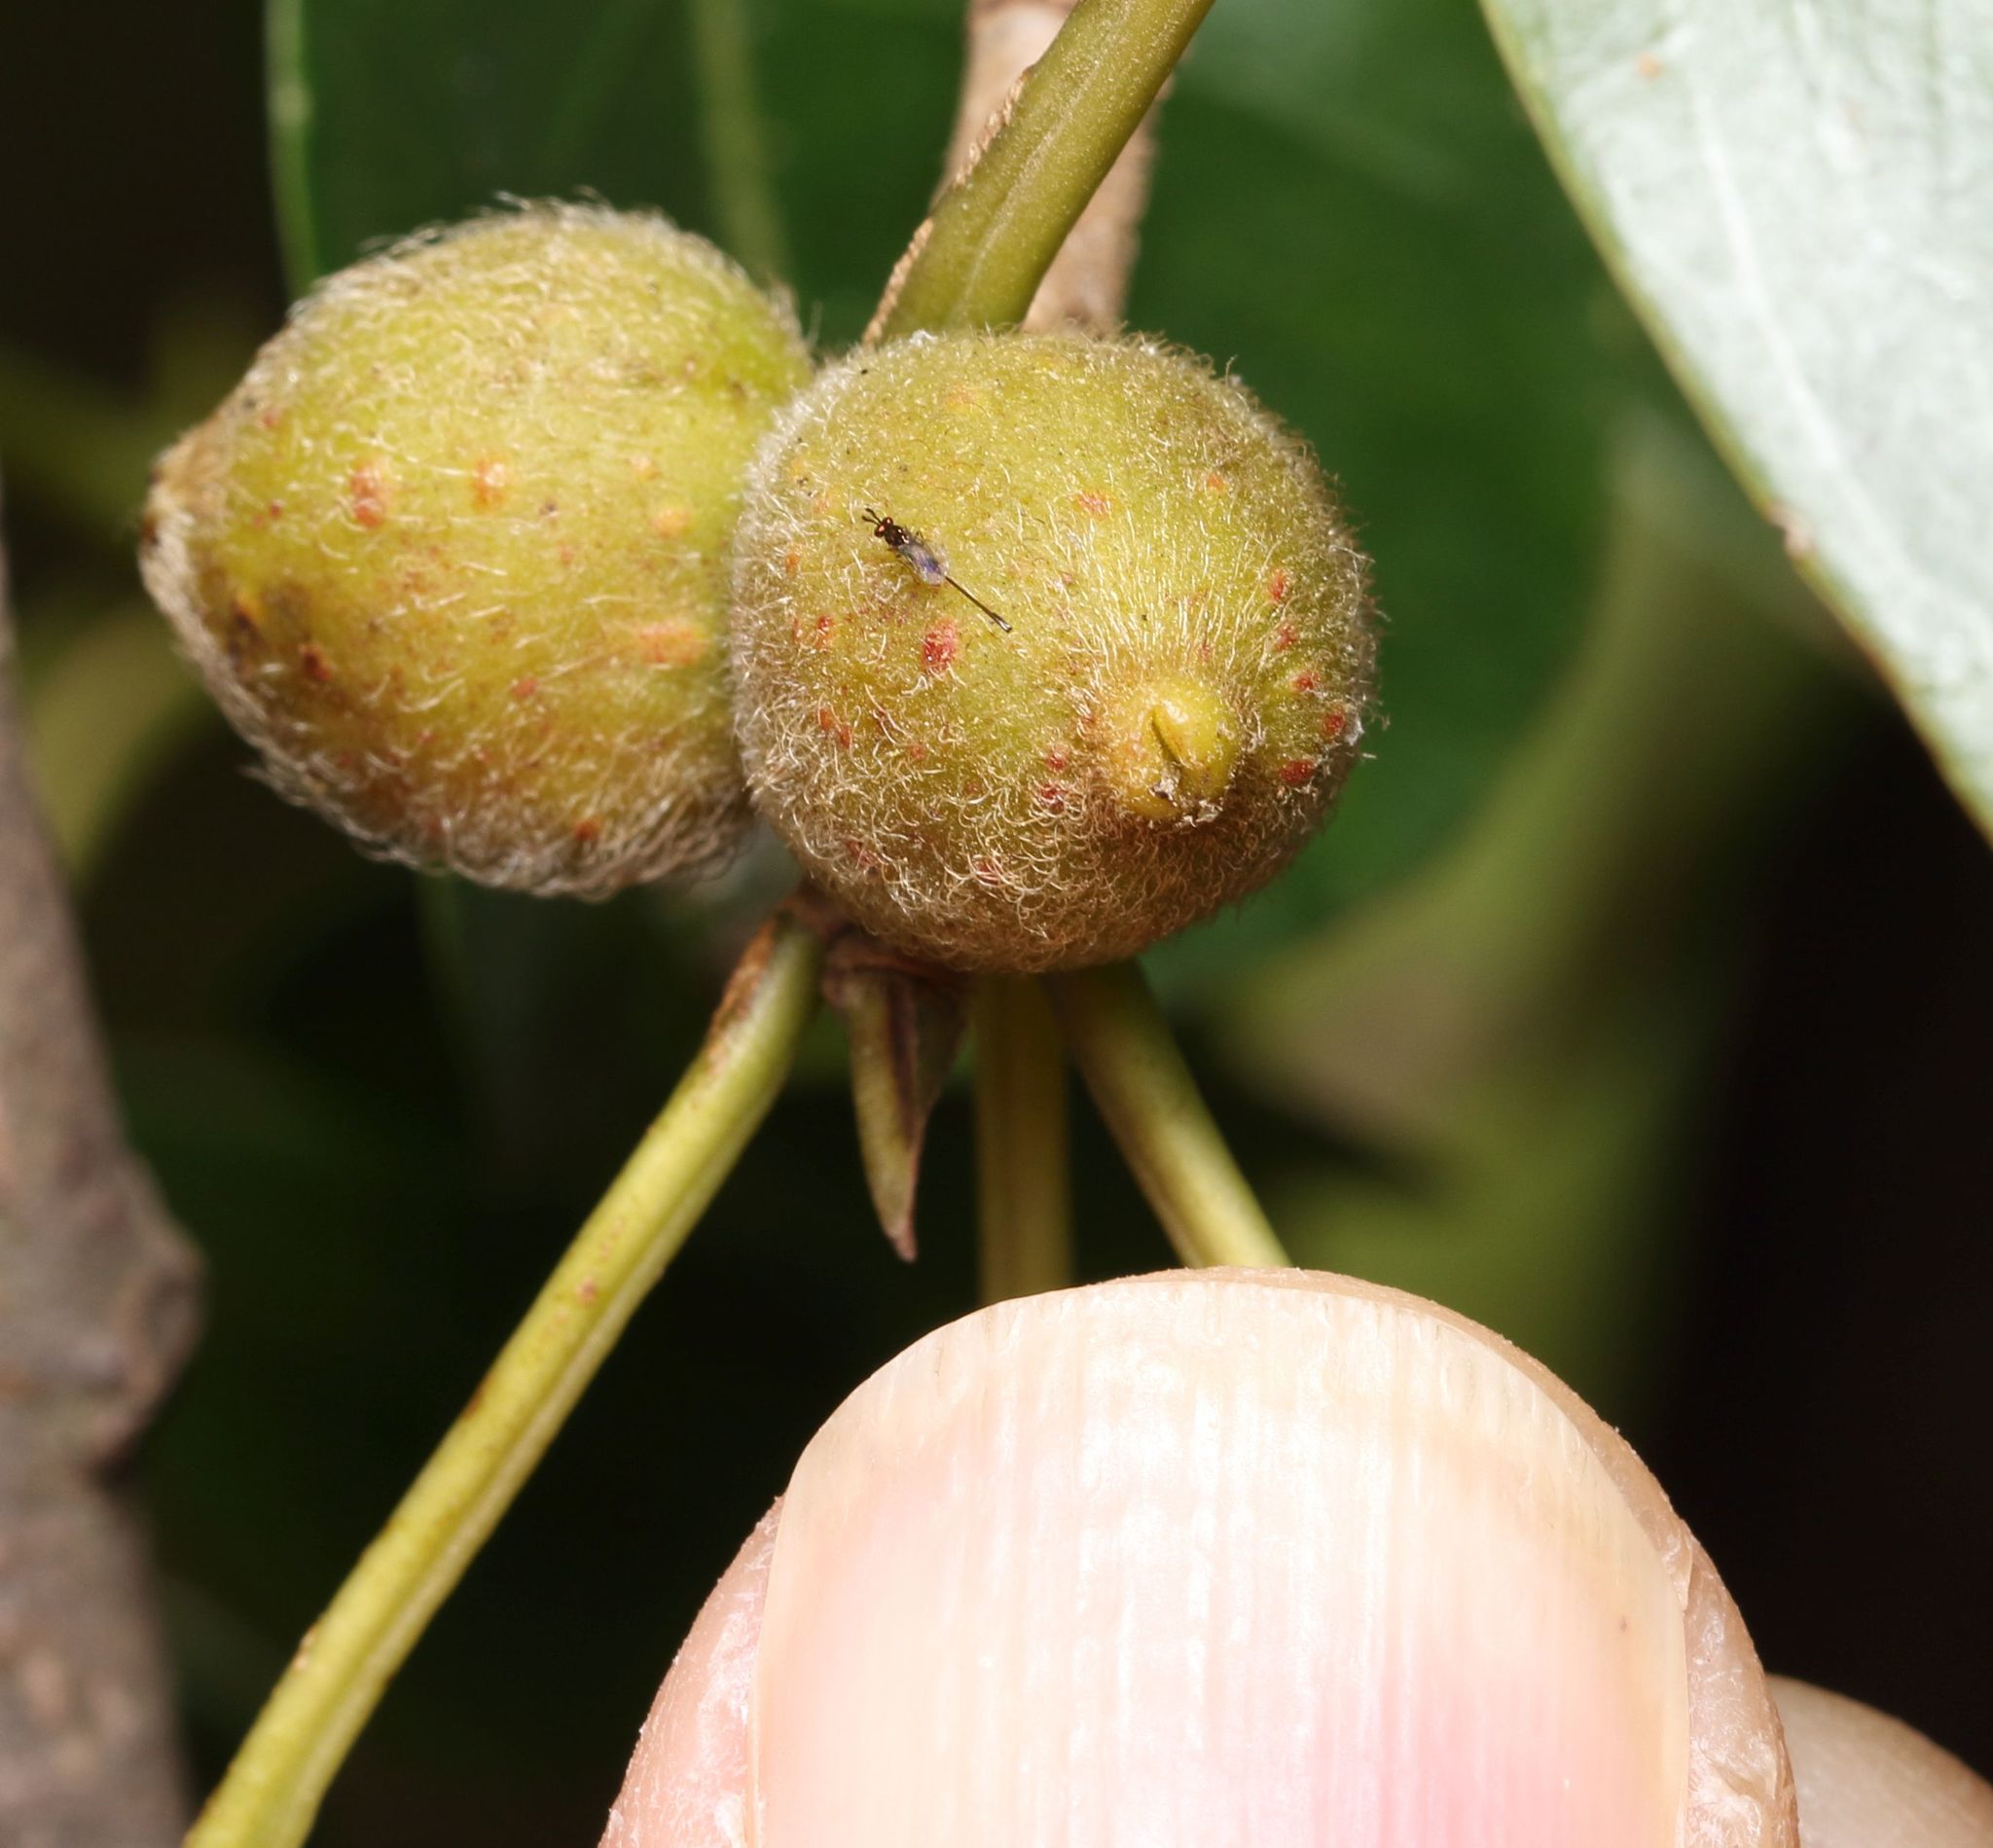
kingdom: Plantae
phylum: Tracheophyta
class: Magnoliopsida
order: Rosales
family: Moraceae
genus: Ficus
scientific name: Ficus thonningii
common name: Fig
